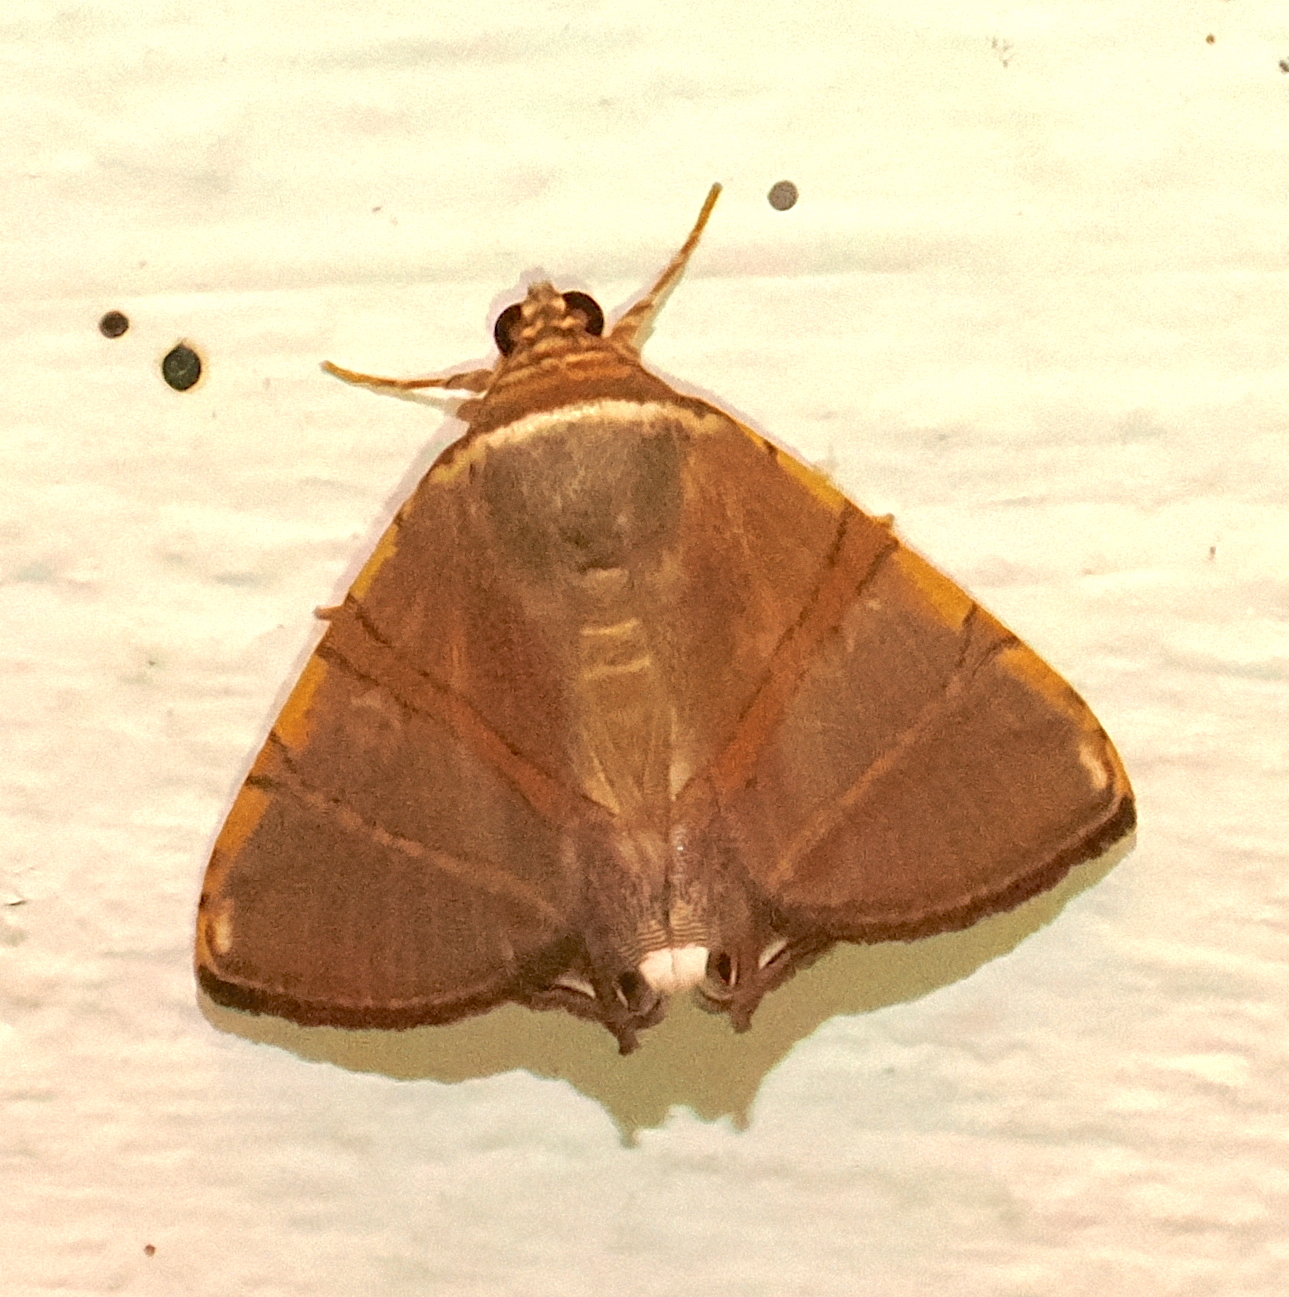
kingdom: Animalia
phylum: Arthropoda
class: Insecta
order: Lepidoptera
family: Erebidae
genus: Eulepidotis
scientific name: Eulepidotis juncida
